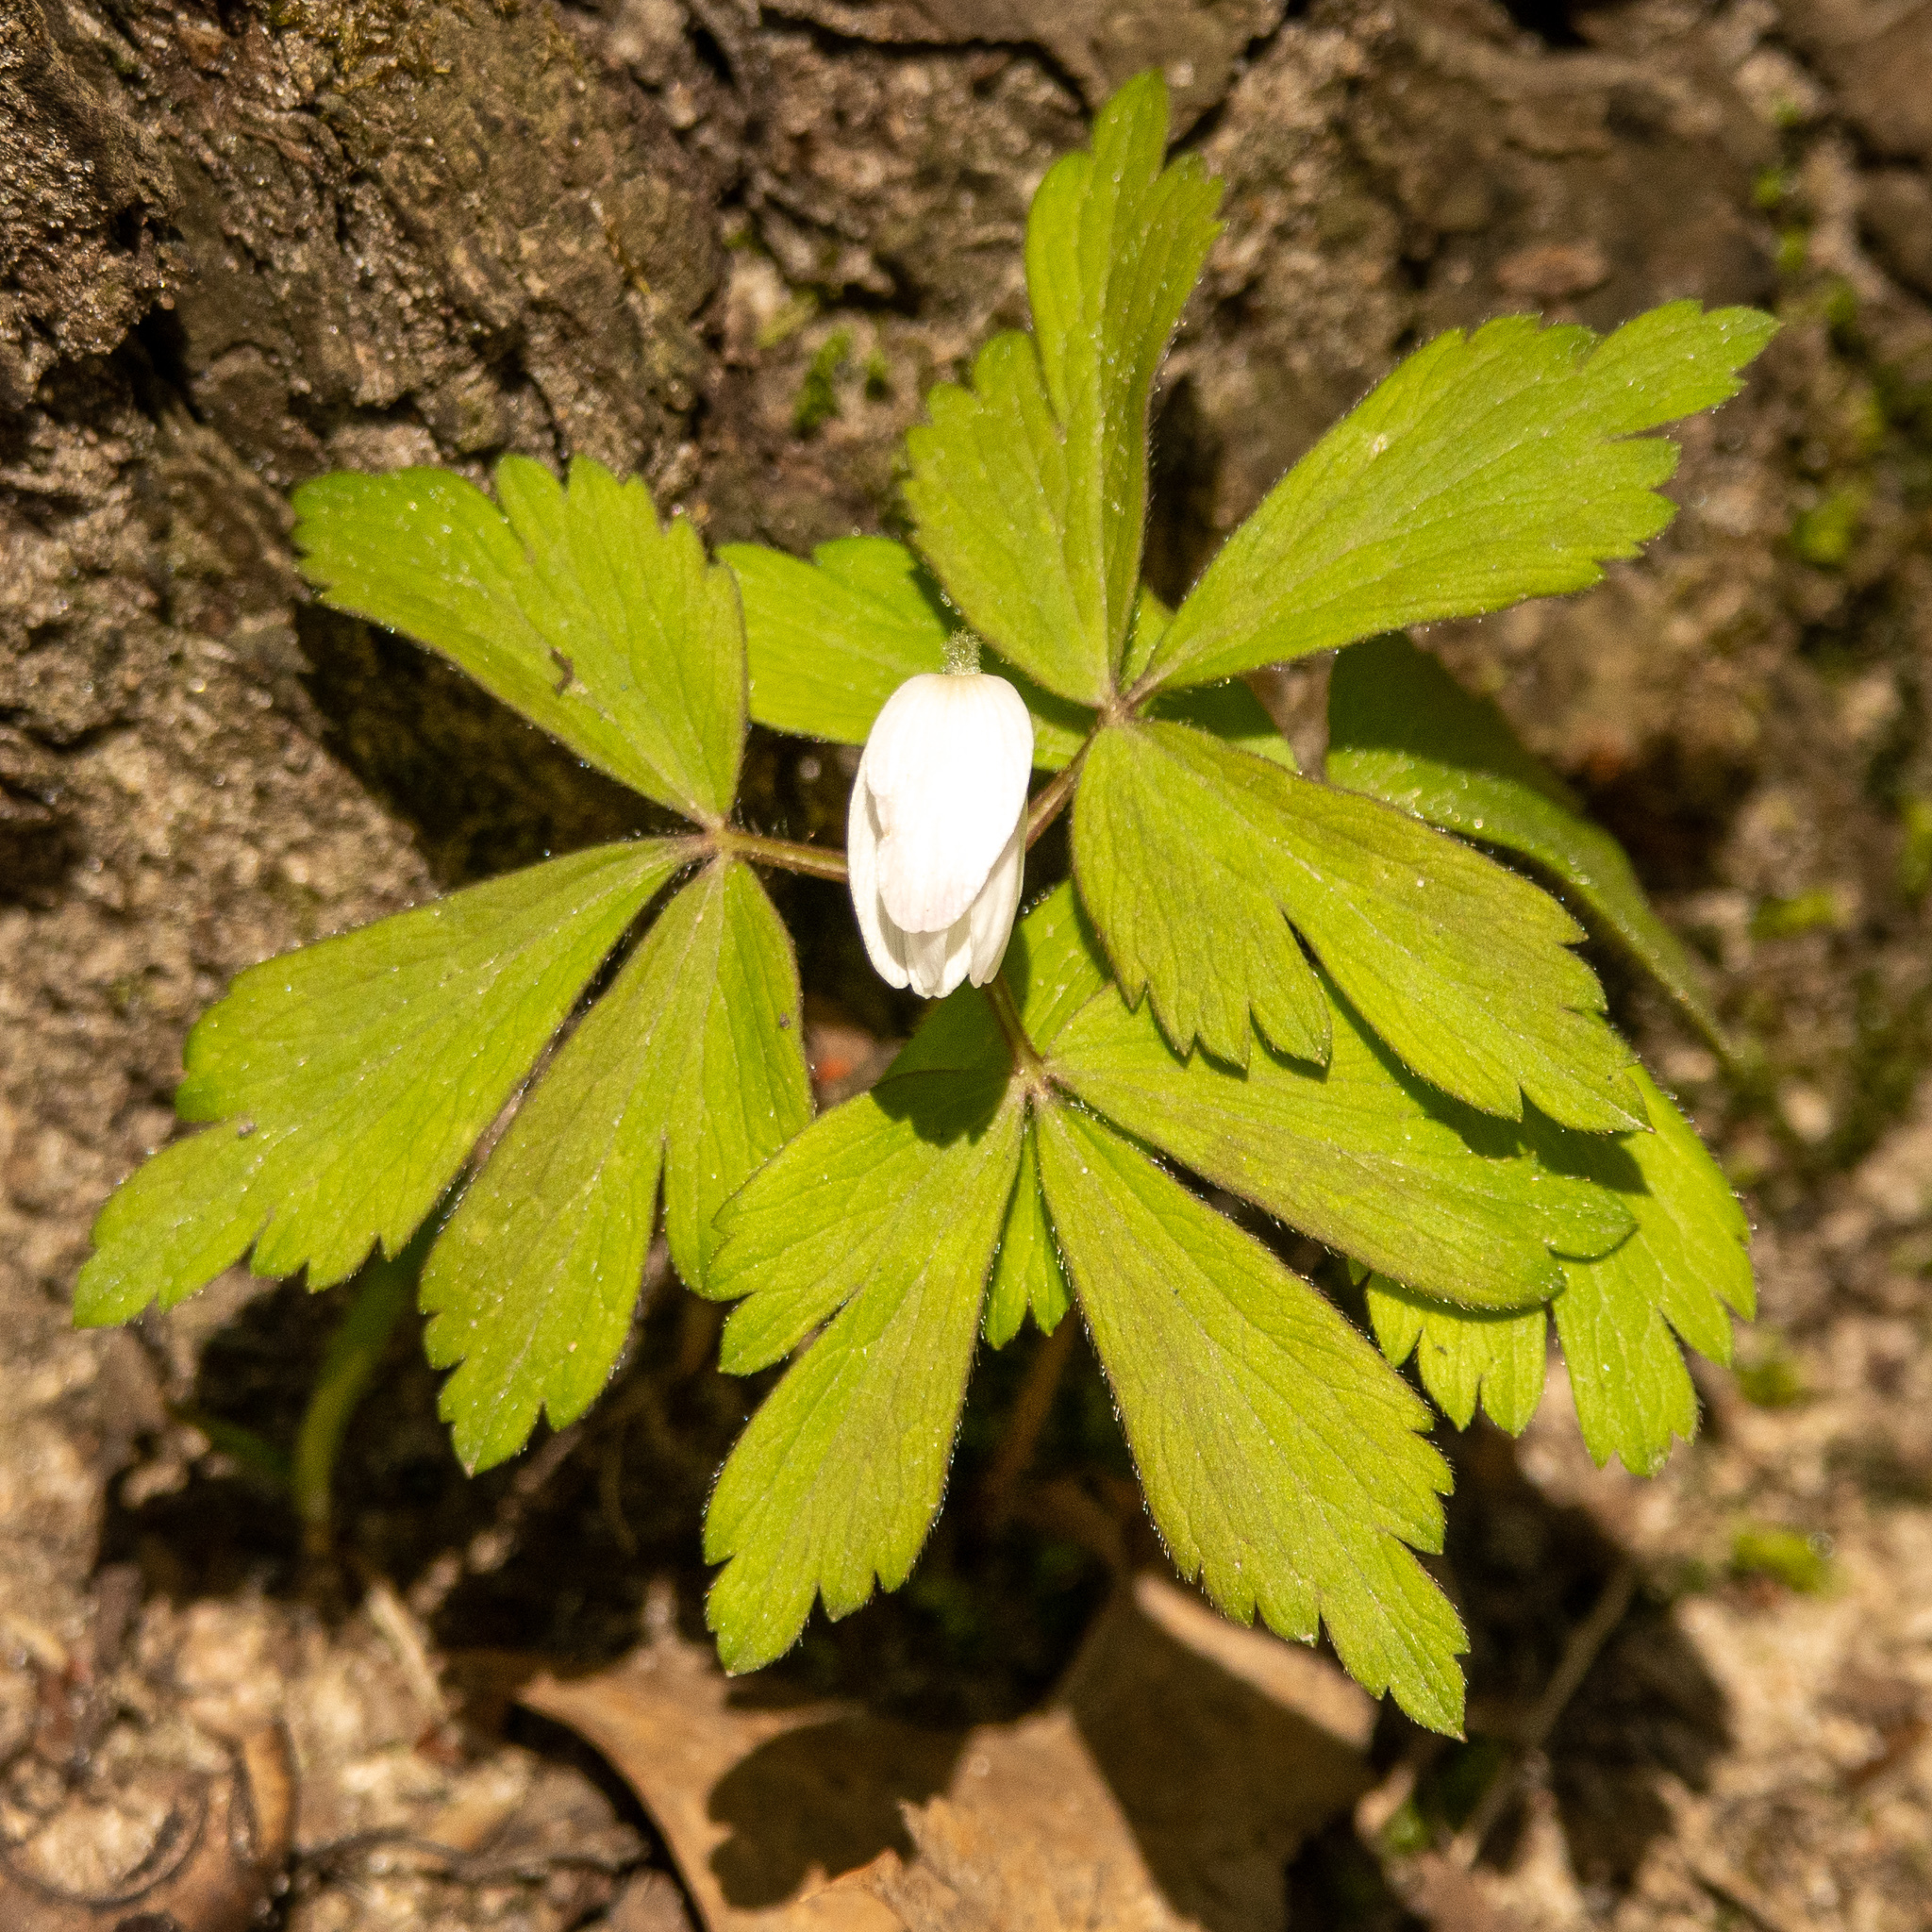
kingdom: Plantae
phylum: Tracheophyta
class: Magnoliopsida
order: Ranunculales
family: Ranunculaceae
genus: Anemone
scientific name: Anemone quinquefolia
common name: Wood anemone
